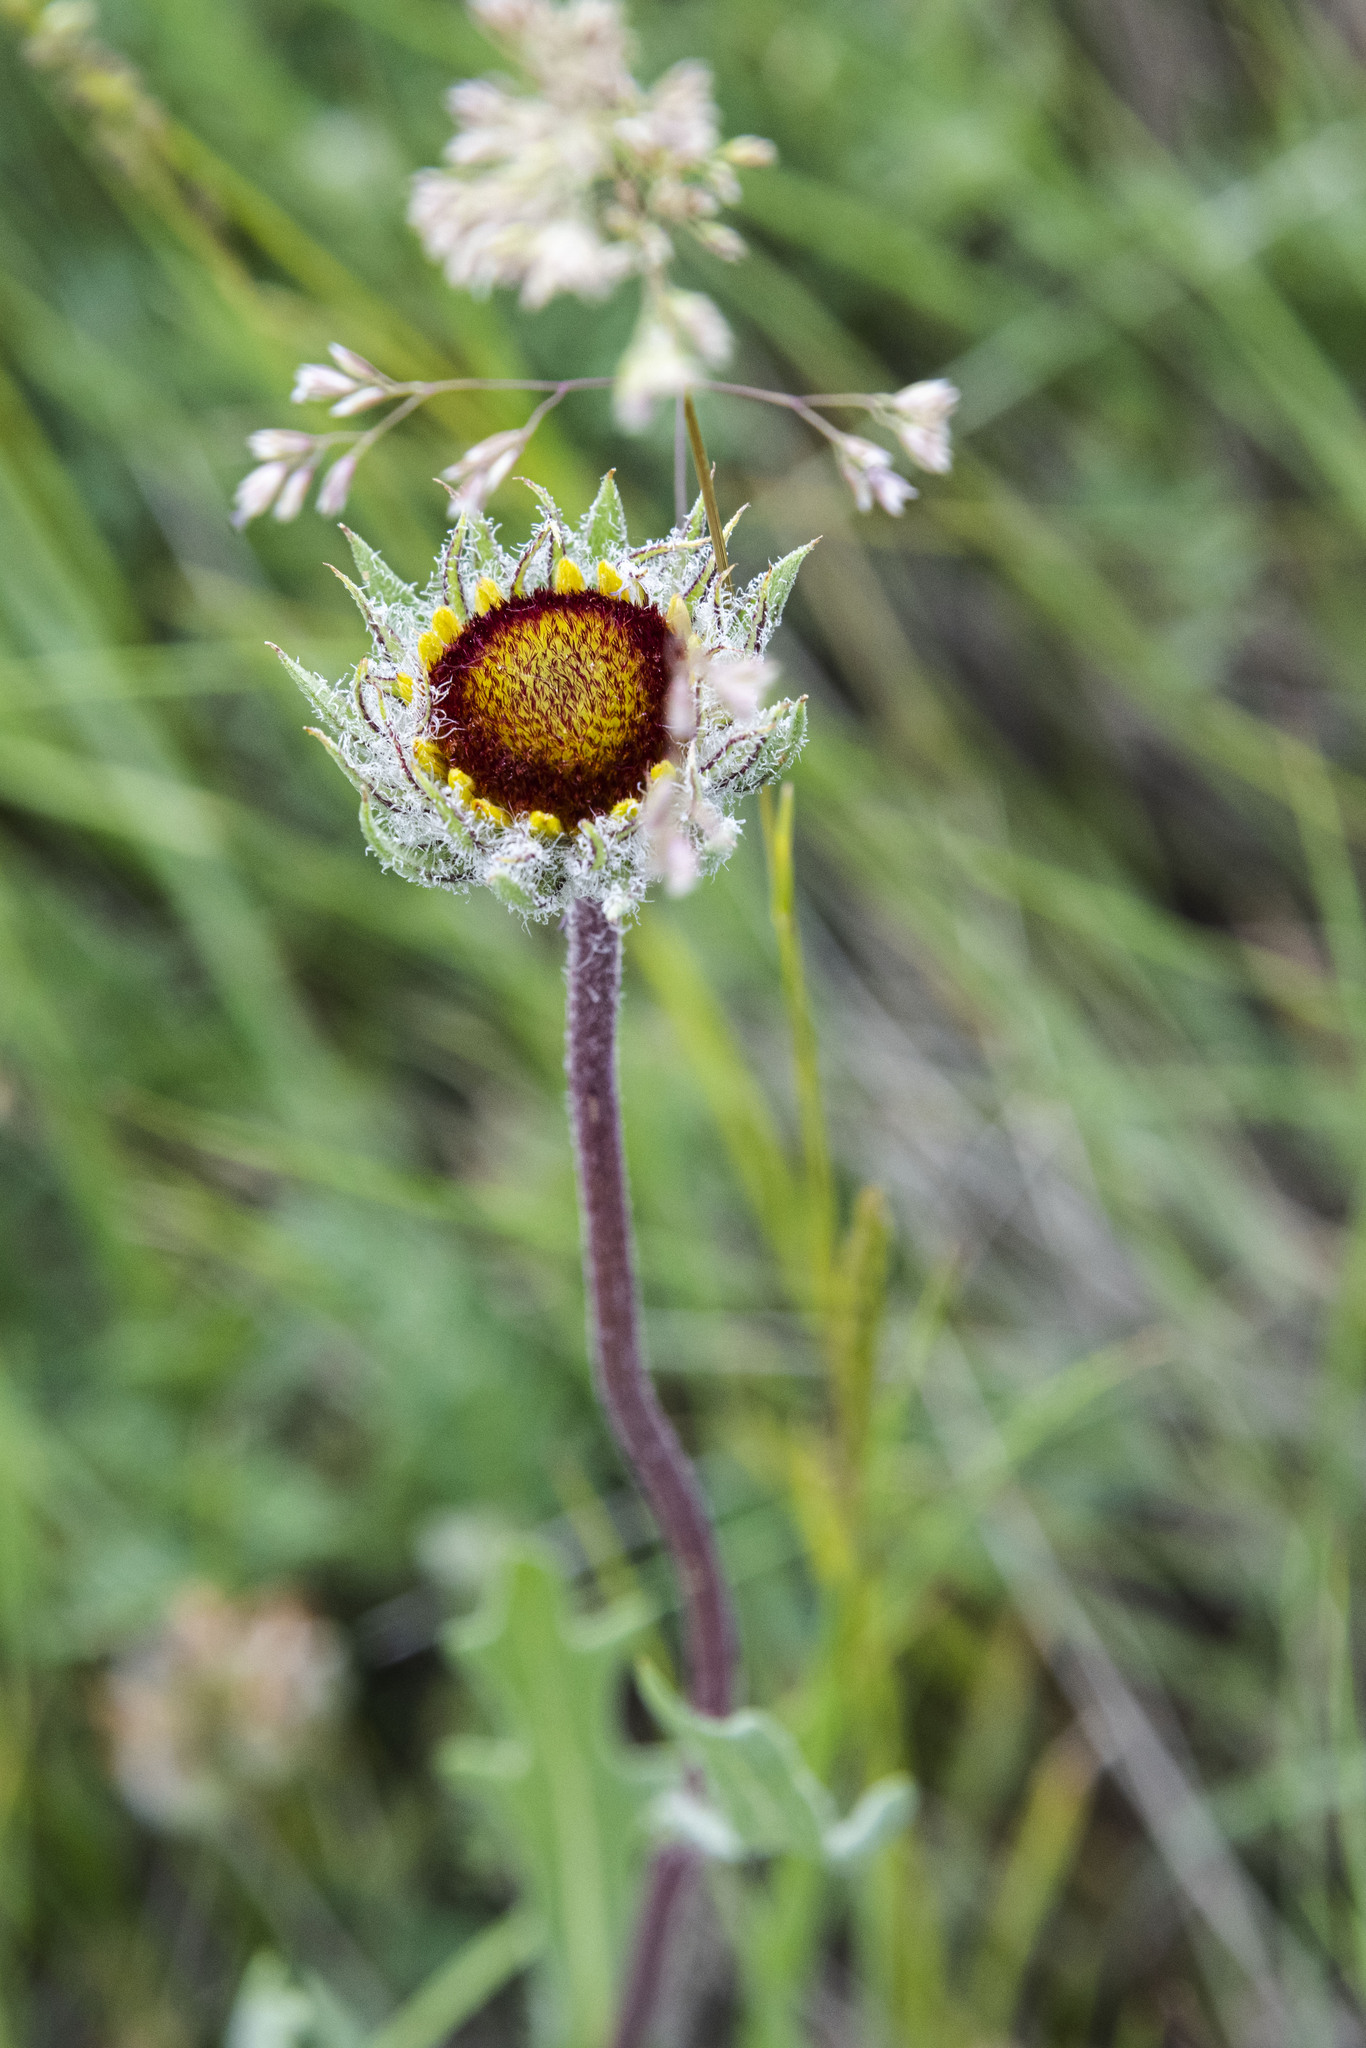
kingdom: Plantae
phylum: Tracheophyta
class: Magnoliopsida
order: Asterales
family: Asteraceae
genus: Gaillardia
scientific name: Gaillardia aristata
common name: Blanket-flower
